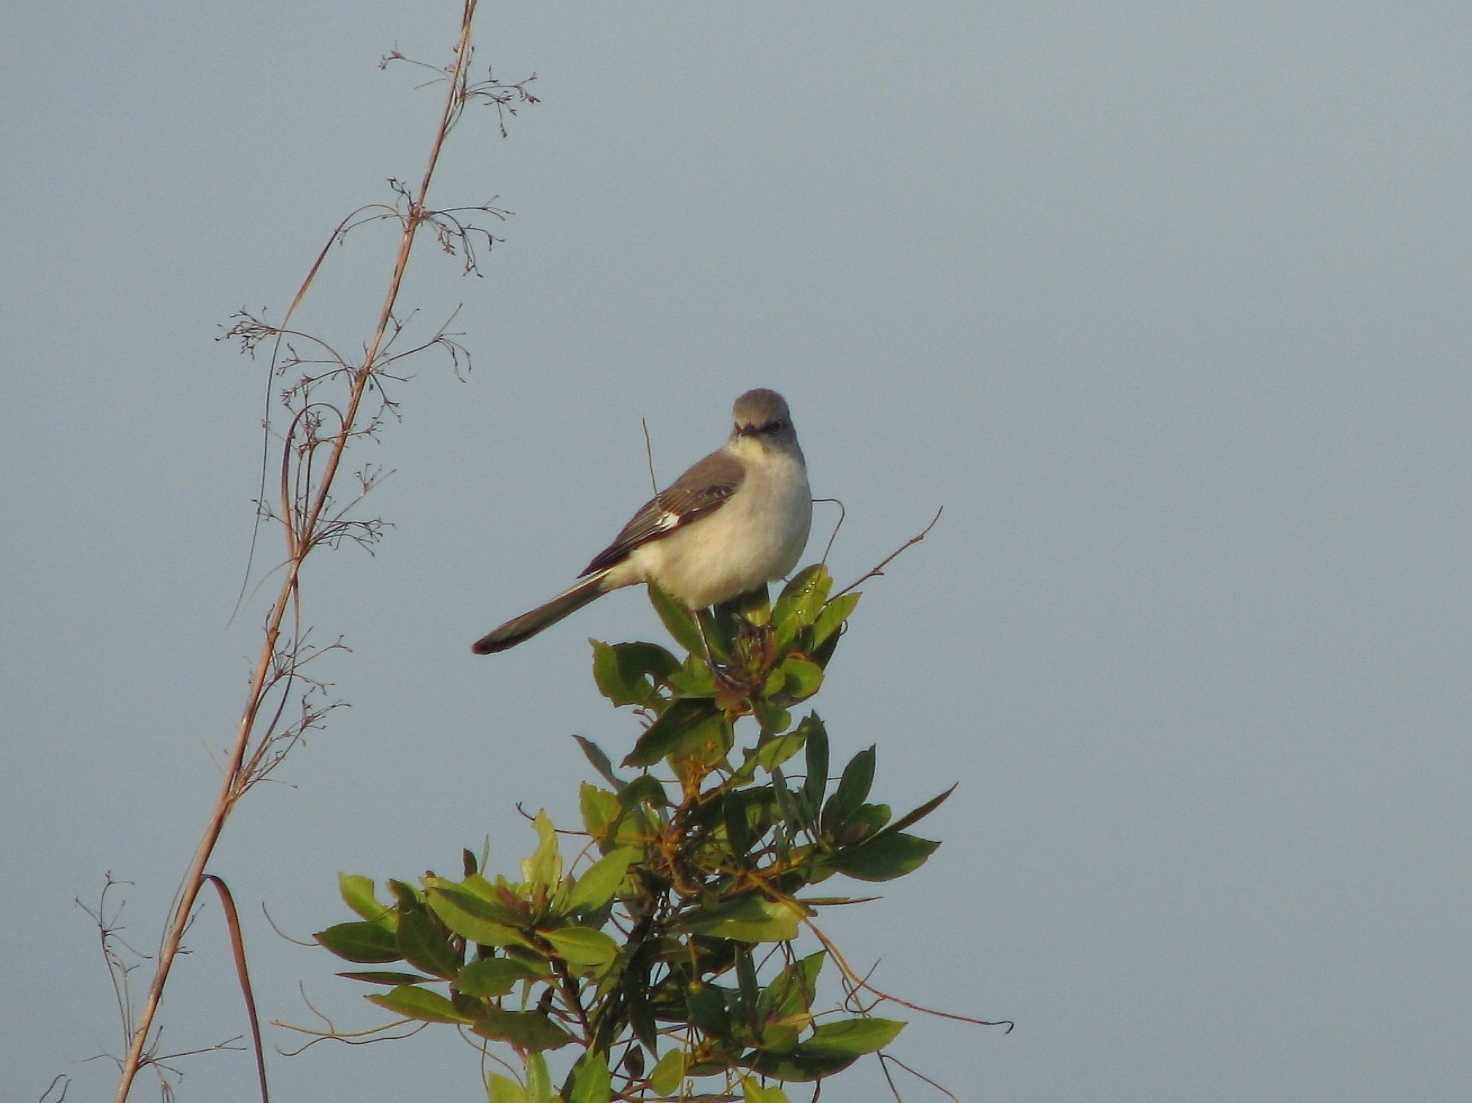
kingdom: Animalia
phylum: Chordata
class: Aves
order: Passeriformes
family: Mimidae
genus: Mimus
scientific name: Mimus polyglottos
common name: Northern mockingbird
